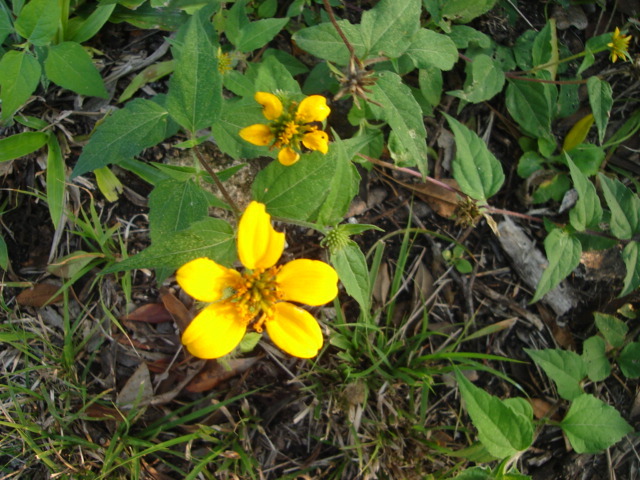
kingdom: Plantae
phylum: Tracheophyta
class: Magnoliopsida
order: Asterales
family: Asteraceae
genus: Sclerocarpus
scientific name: Sclerocarpus uniserialis
